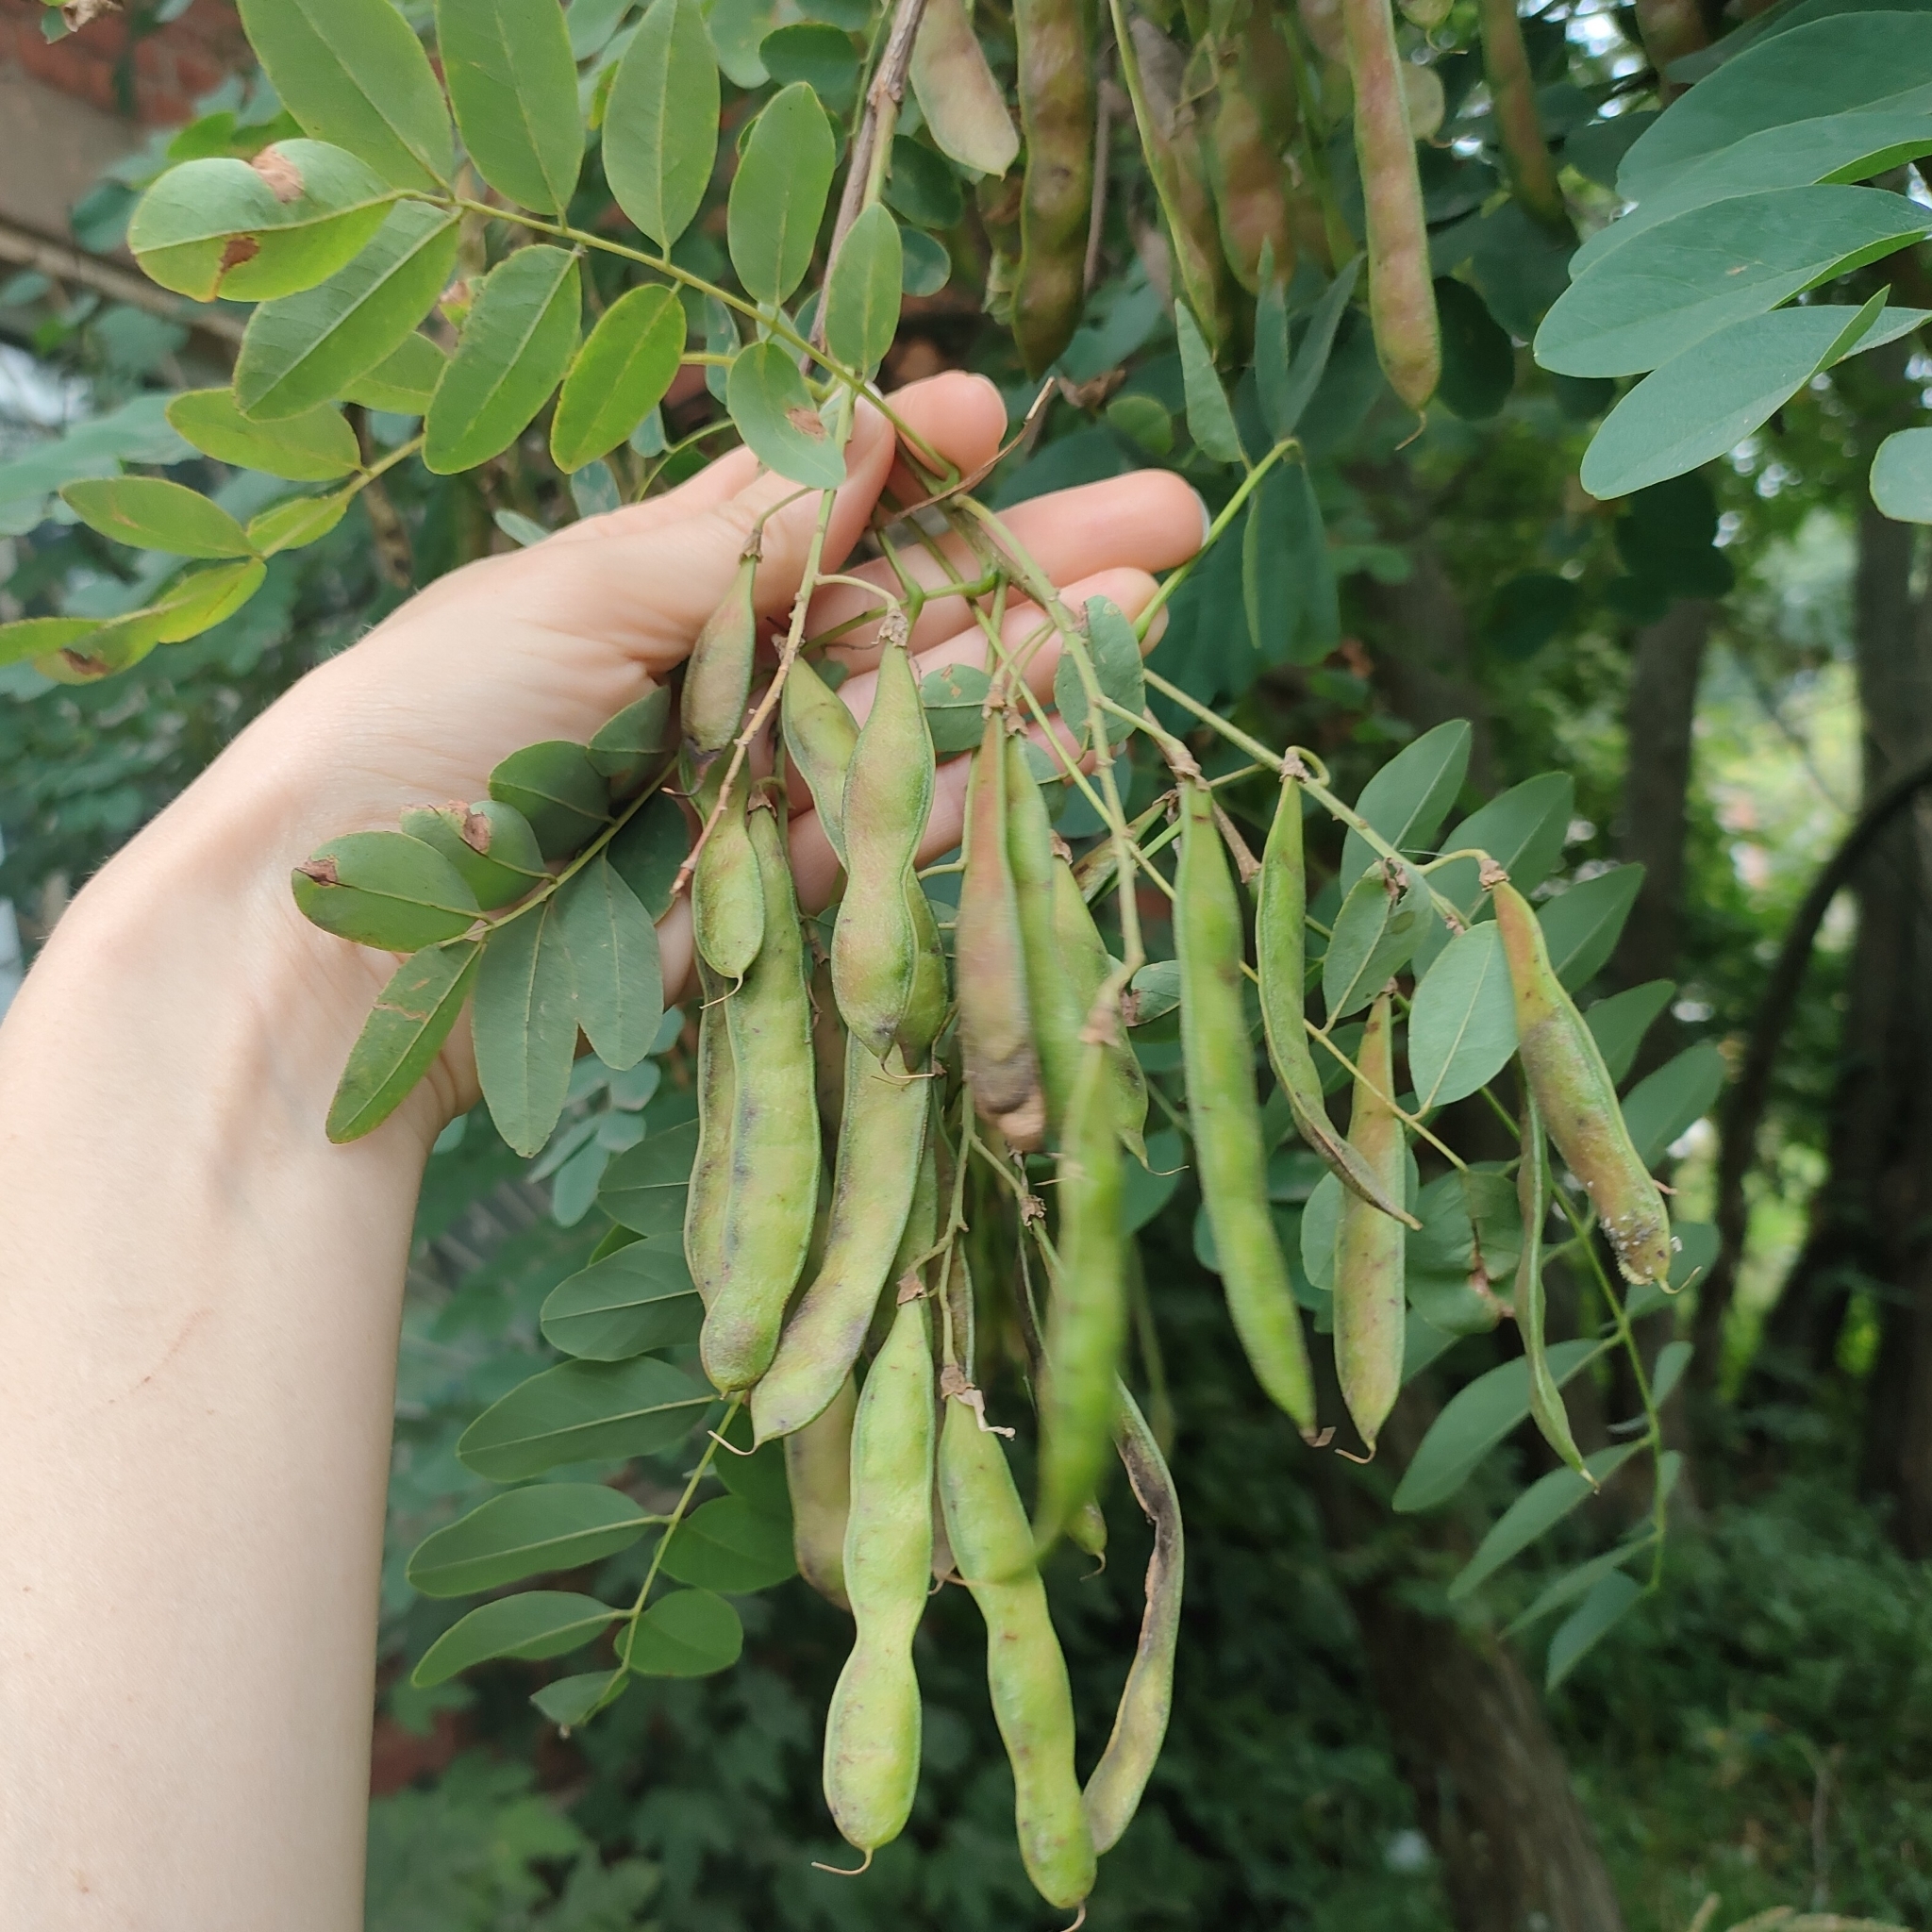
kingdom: Plantae
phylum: Tracheophyta
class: Magnoliopsida
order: Fabales
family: Fabaceae
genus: Robinia
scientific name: Robinia pseudoacacia
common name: Black locust
